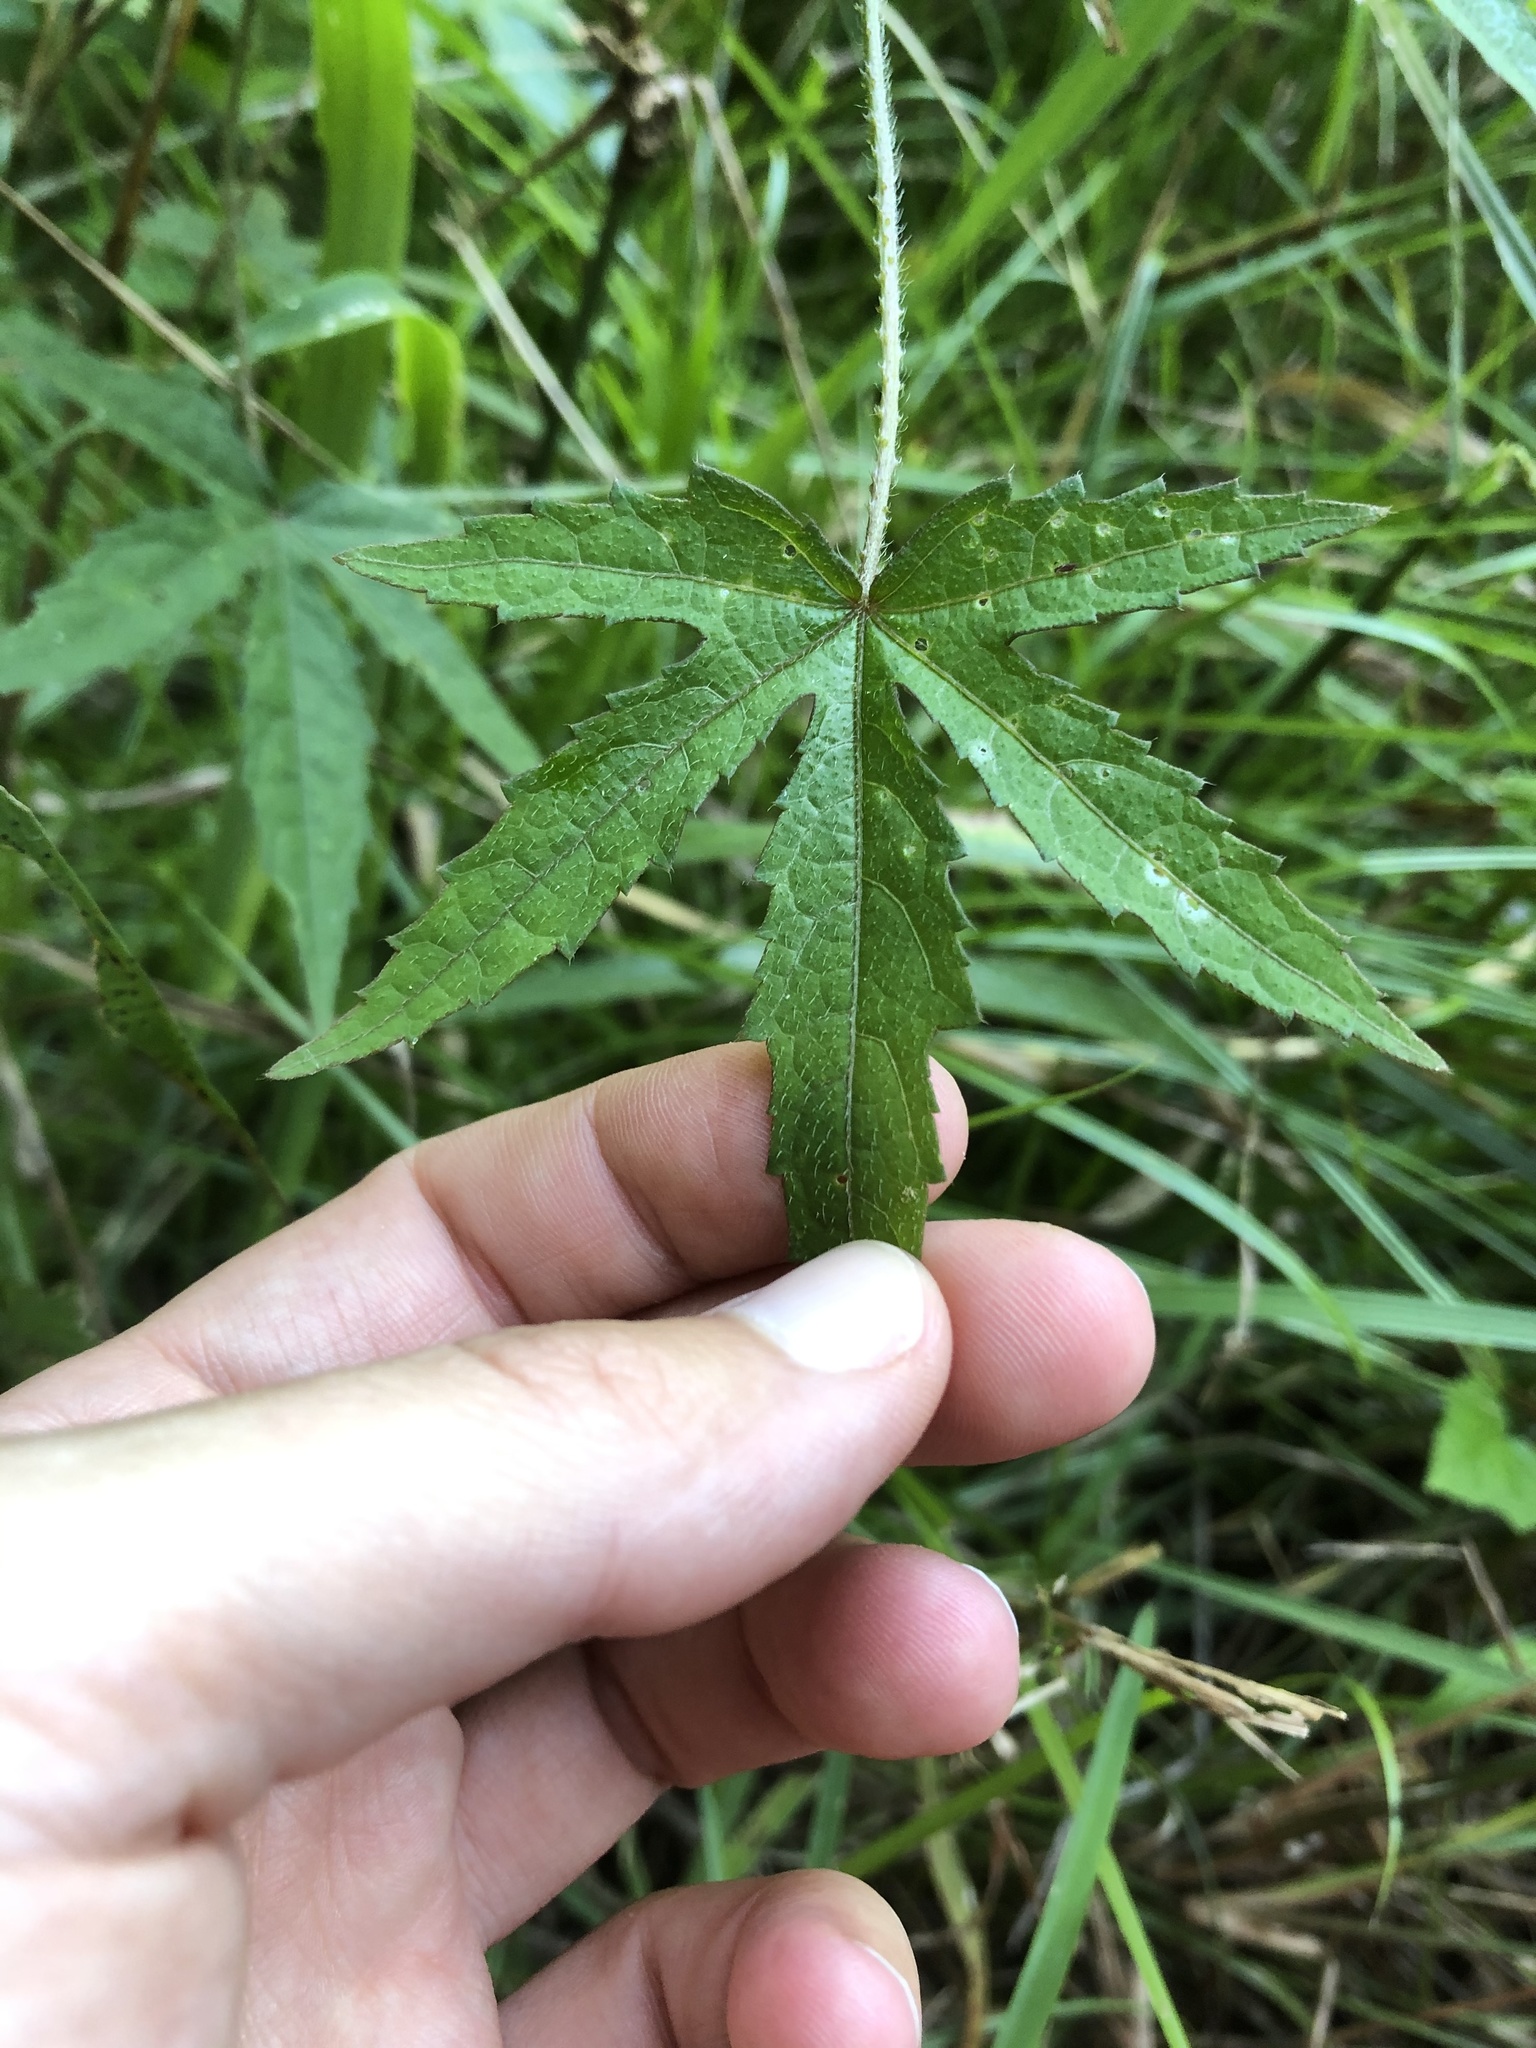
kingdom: Plantae
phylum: Tracheophyta
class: Magnoliopsida
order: Malvales
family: Malvaceae
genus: Hibiscus
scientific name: Hibiscus cannabinus
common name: Brown indianhemp
